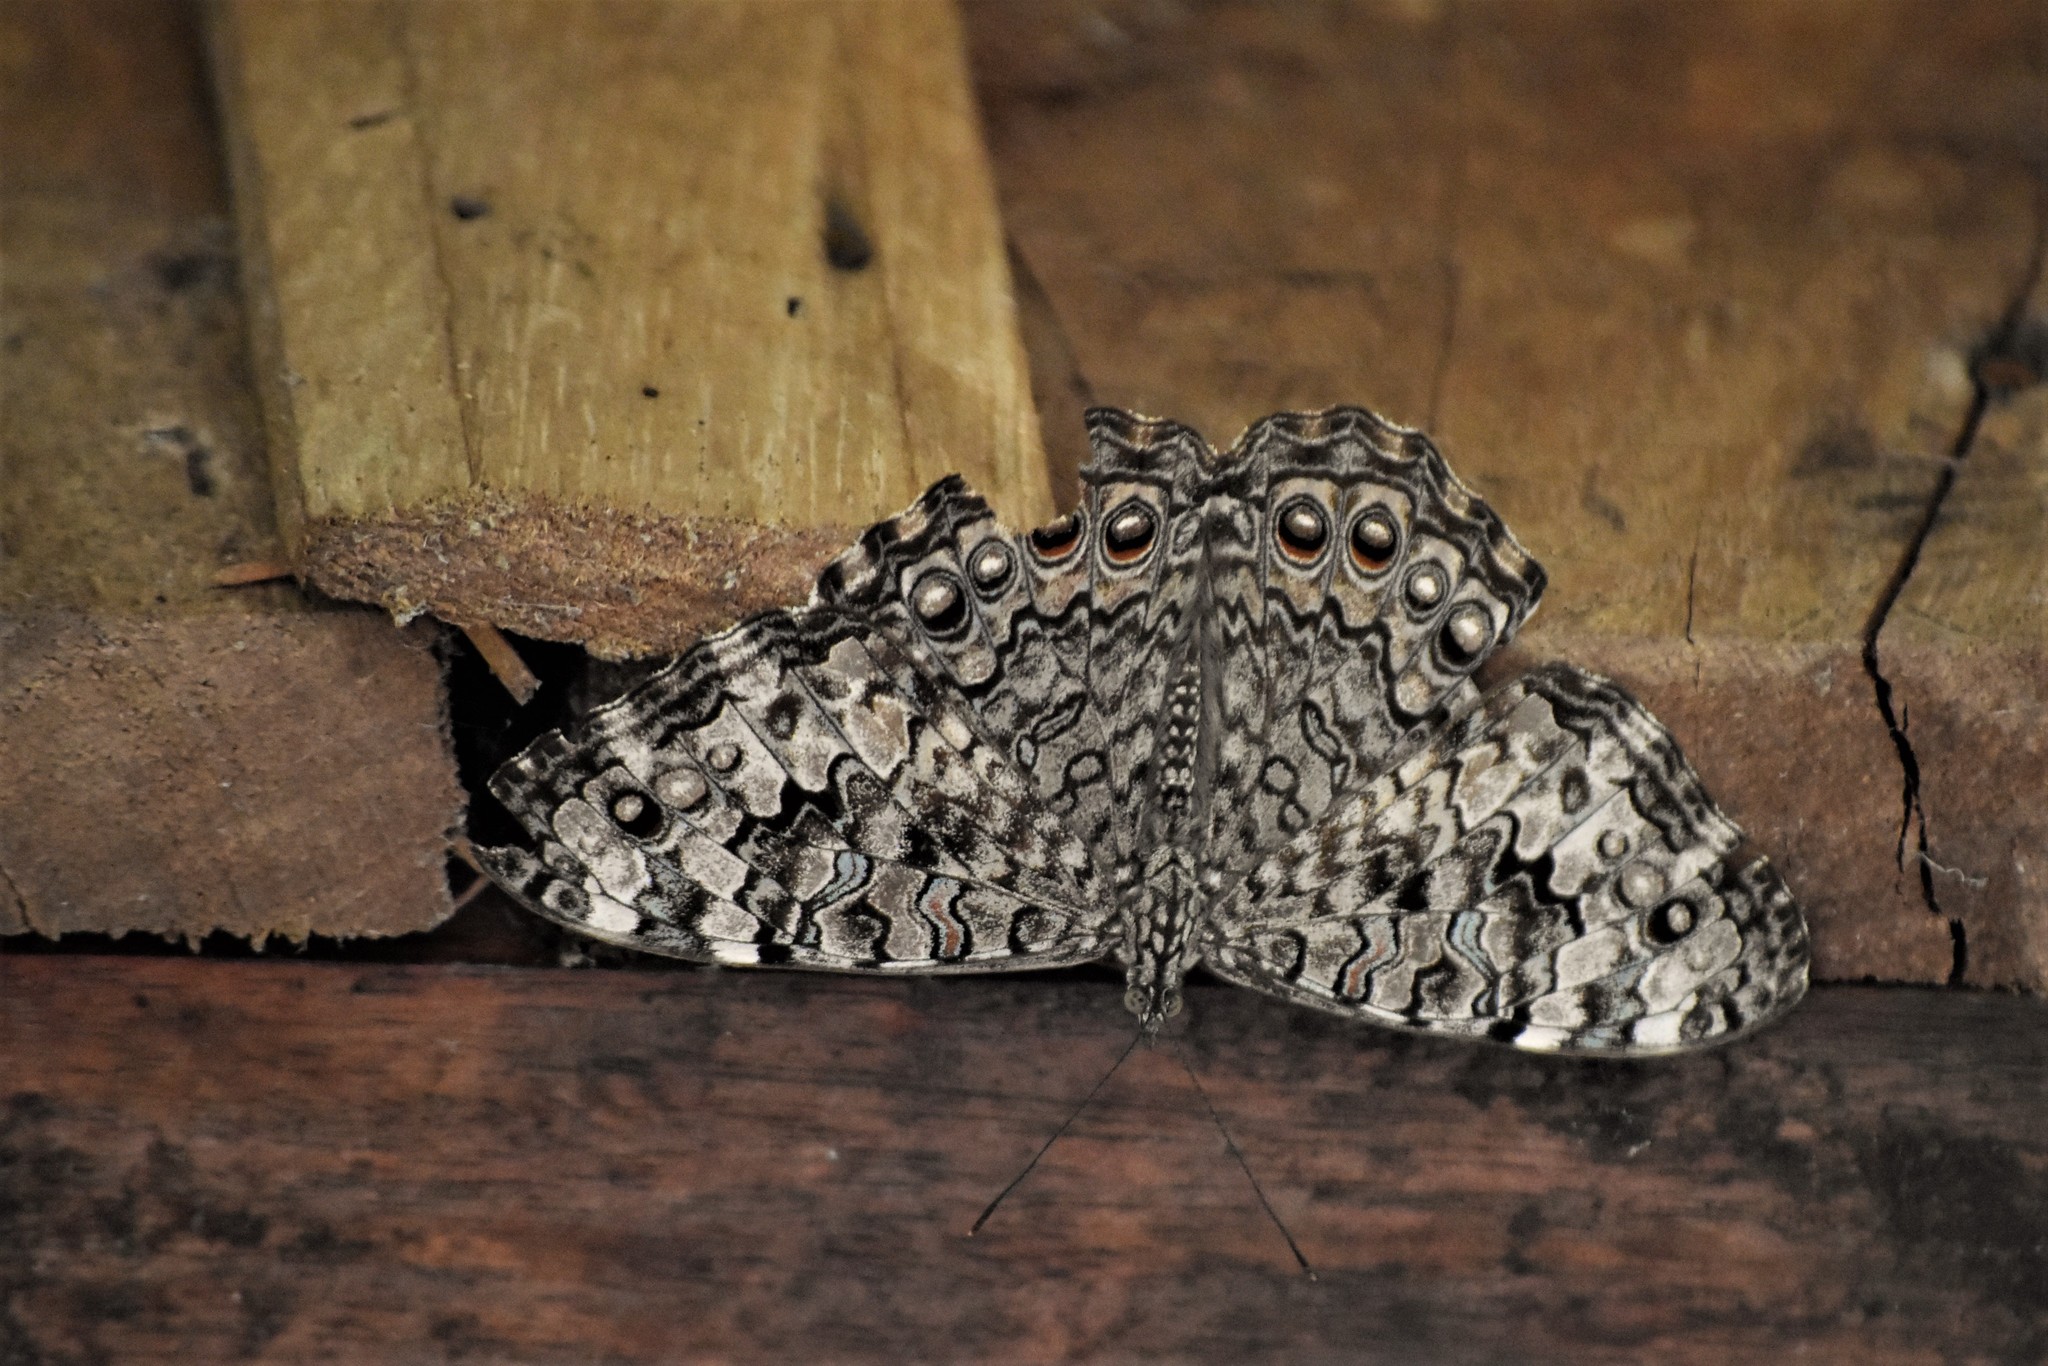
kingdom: Animalia
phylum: Arthropoda
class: Insecta
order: Lepidoptera
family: Nymphalidae
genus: Hamadryas
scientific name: Hamadryas februa
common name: Gray cracker
